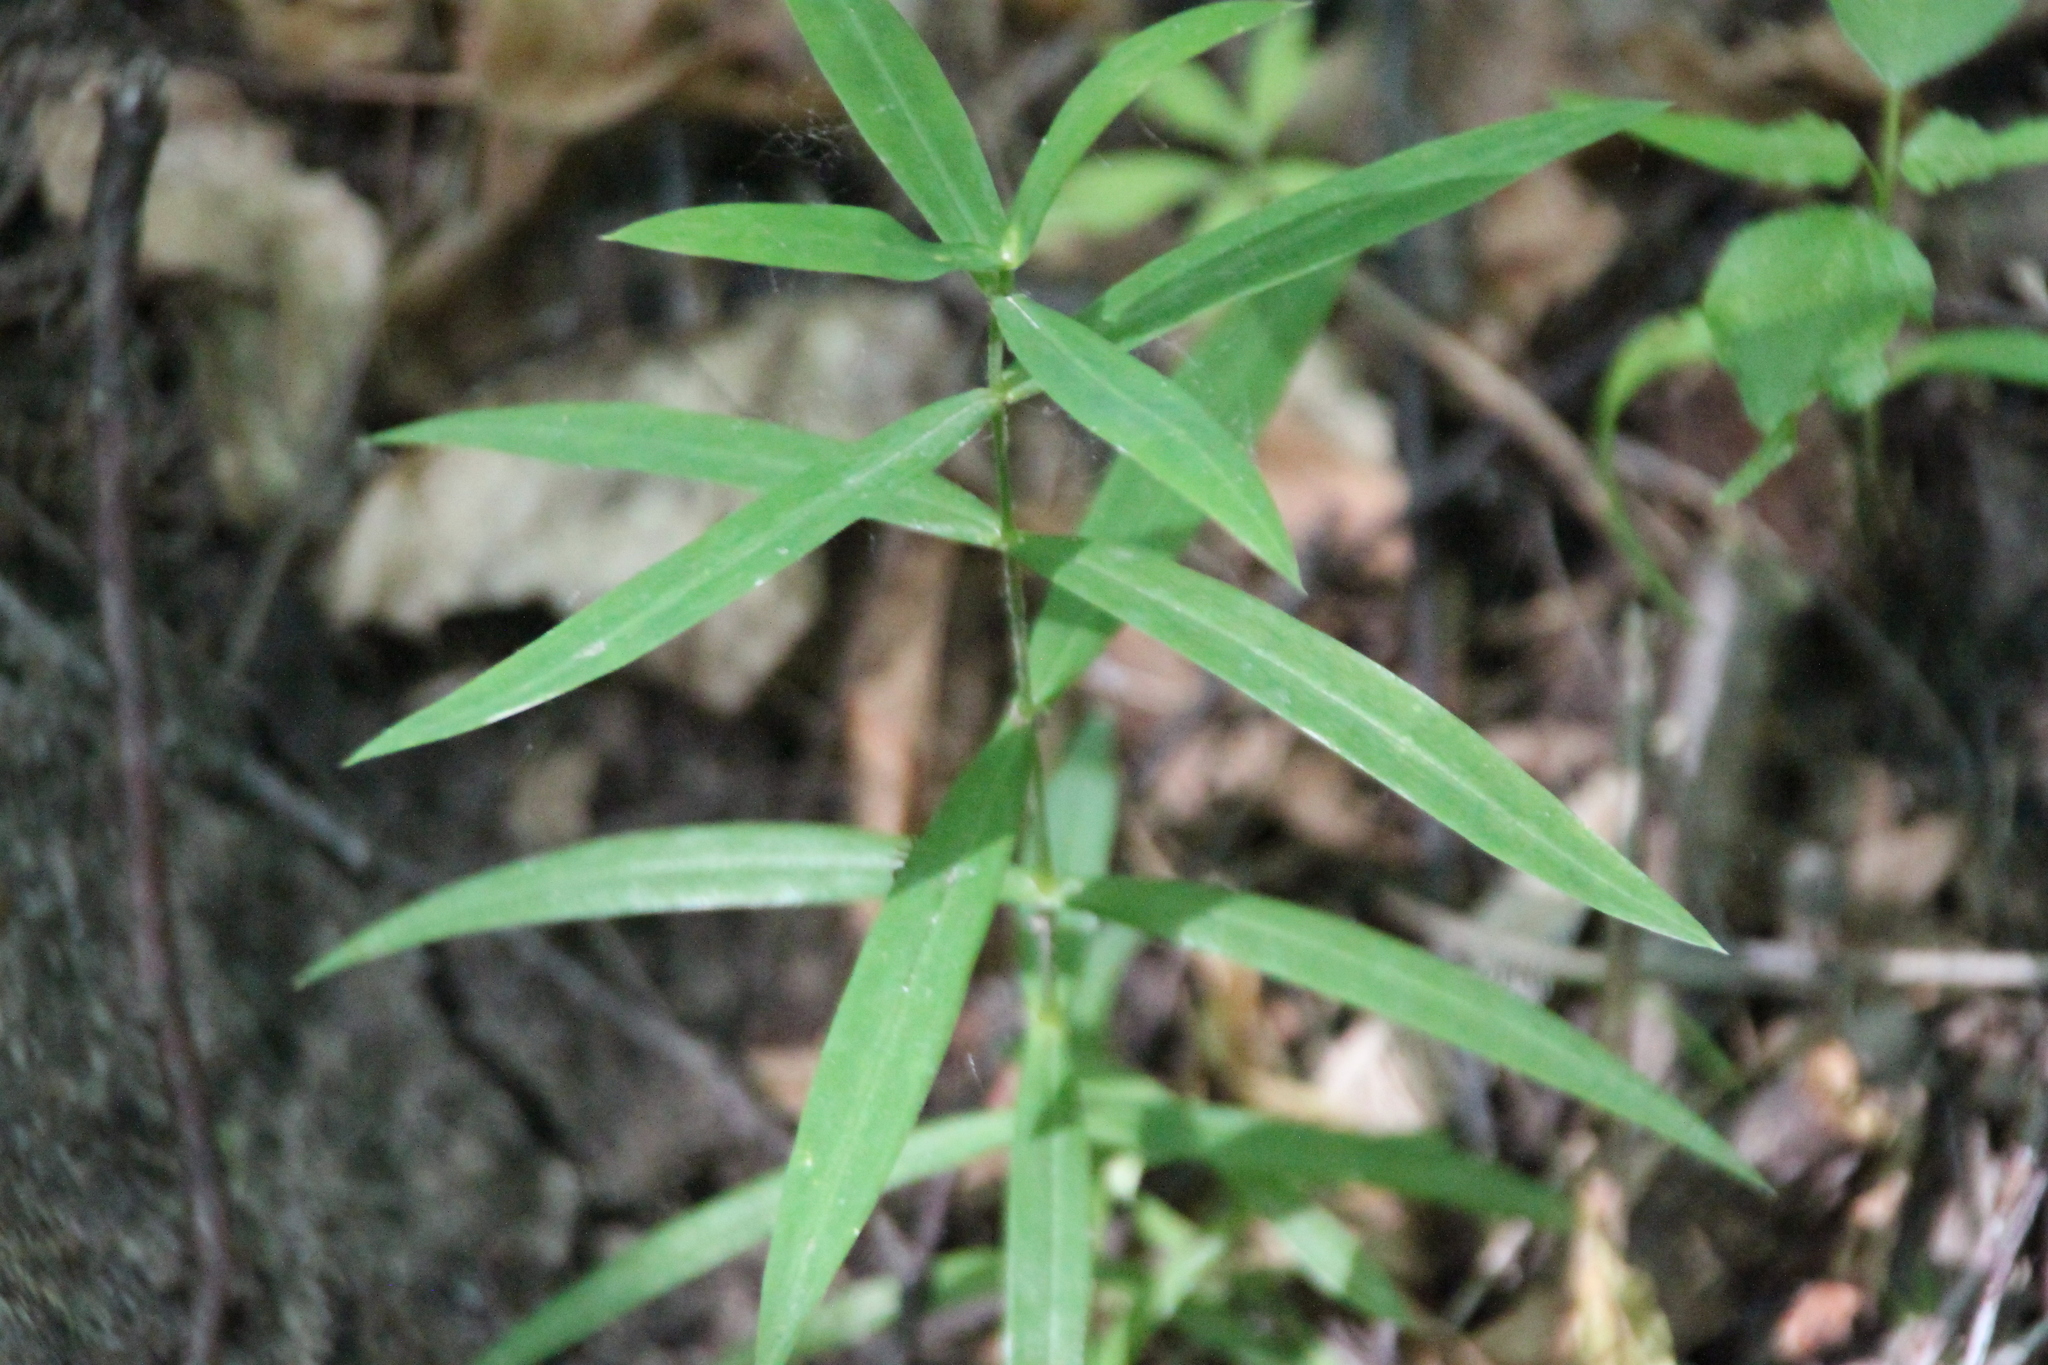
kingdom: Plantae
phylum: Tracheophyta
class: Magnoliopsida
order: Caryophyllales
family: Caryophyllaceae
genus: Rabelera
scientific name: Rabelera holostea
